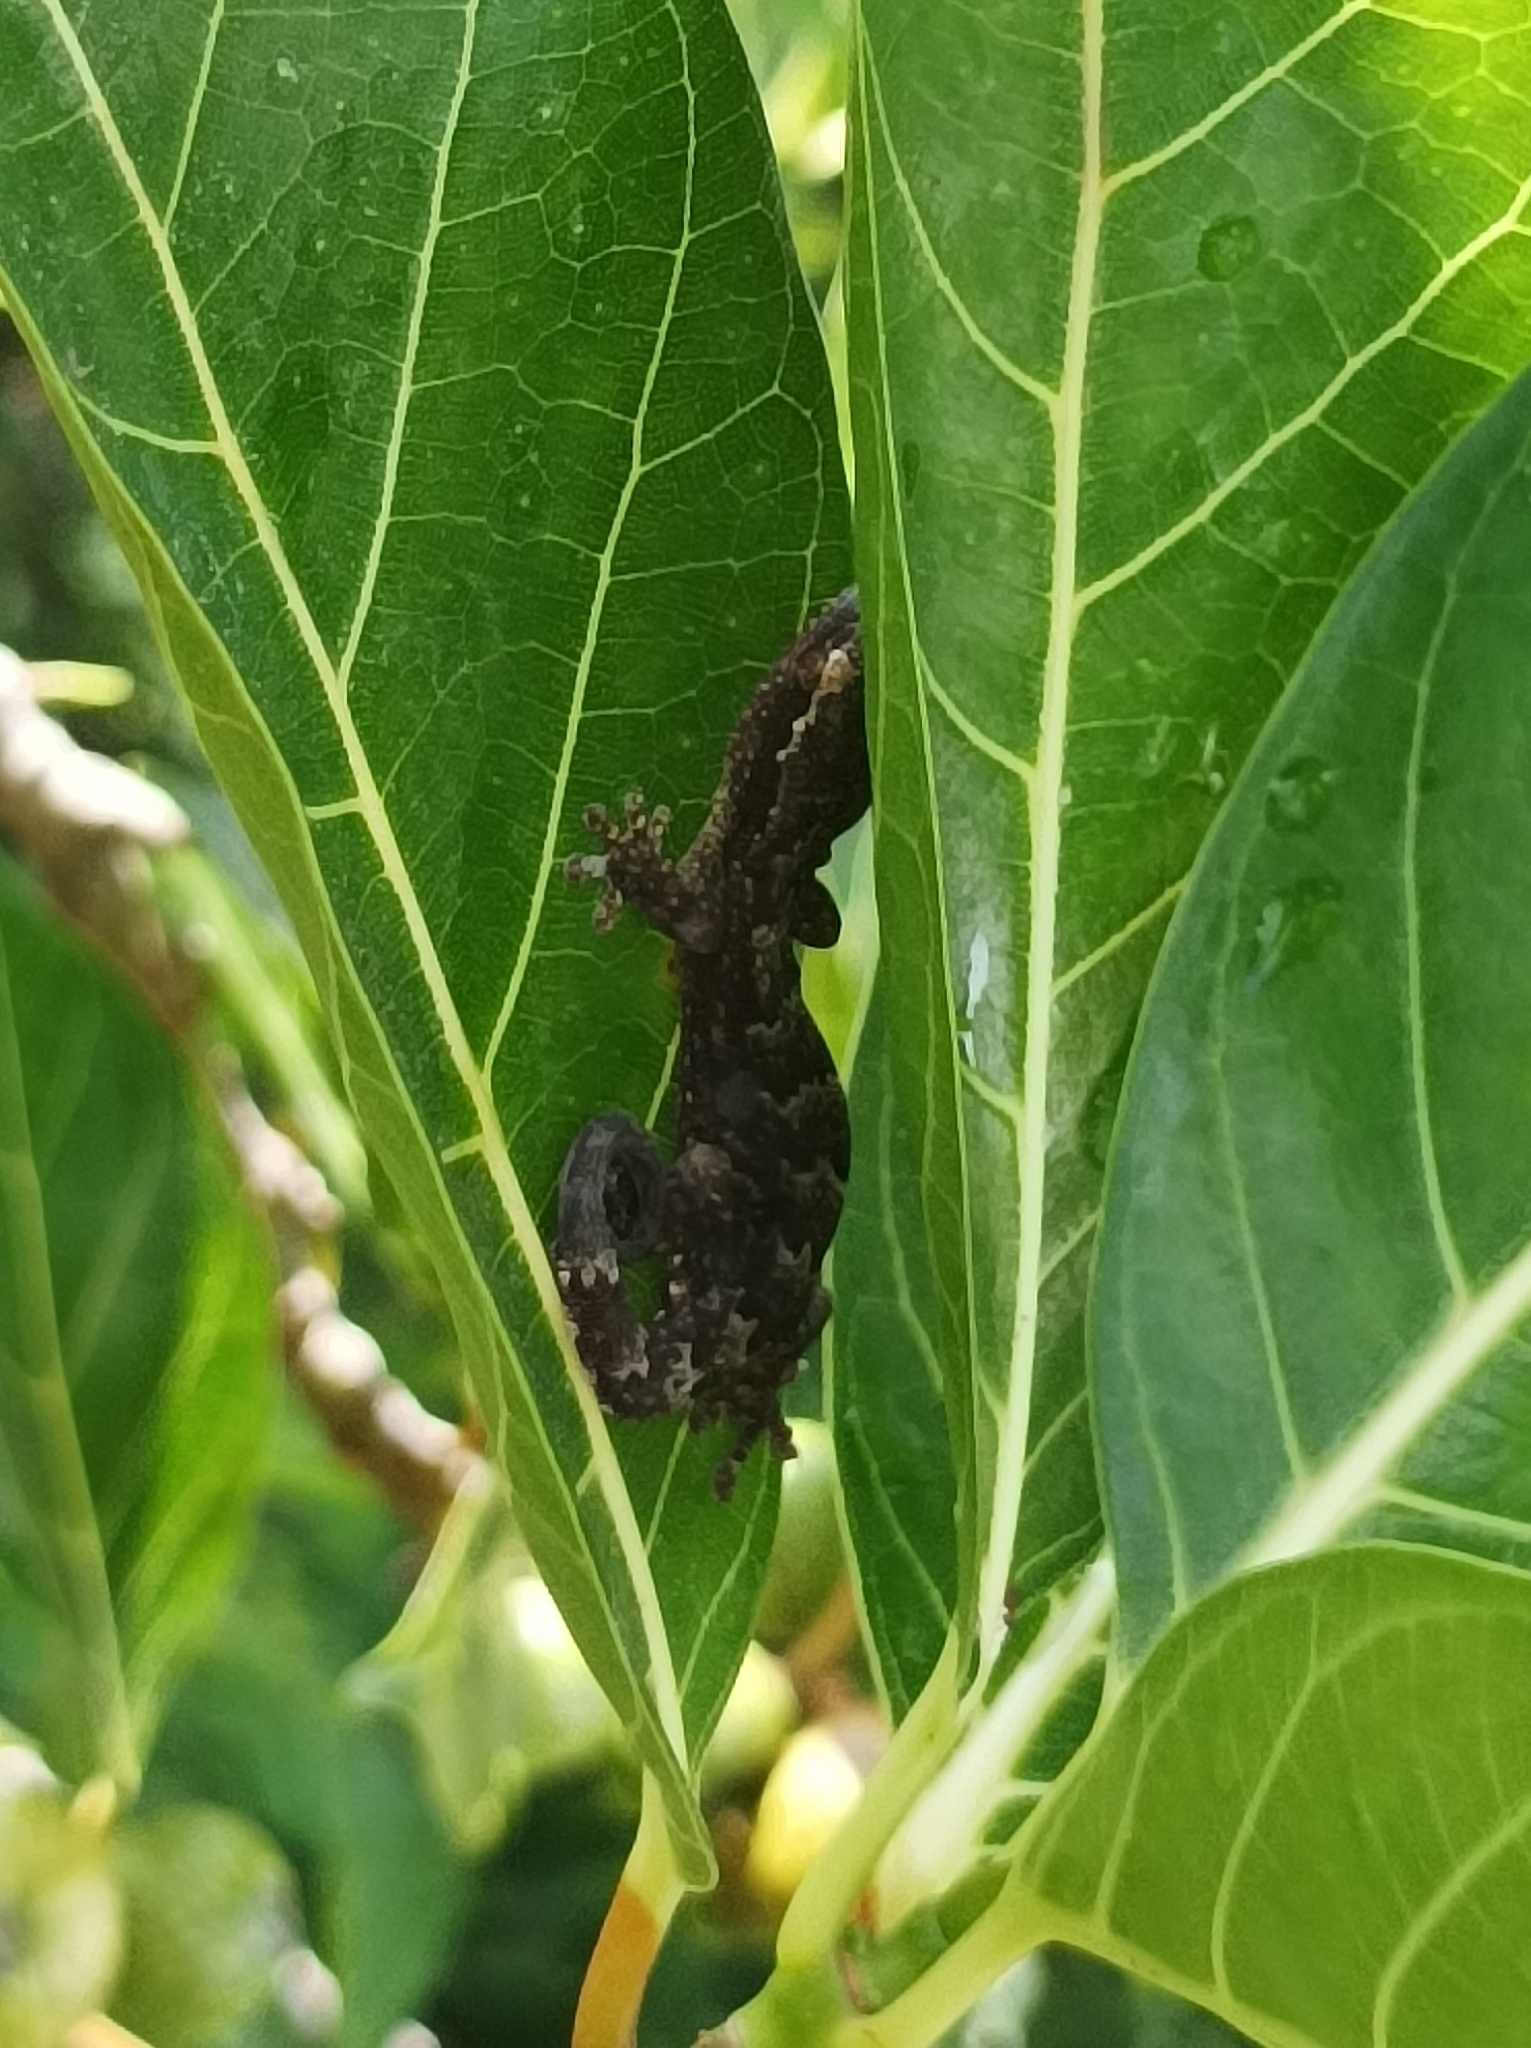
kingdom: Animalia
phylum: Chordata
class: Squamata
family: Gekkonidae
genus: Lepidodactylus
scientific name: Lepidodactylus lugubris
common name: Mourning gecko
